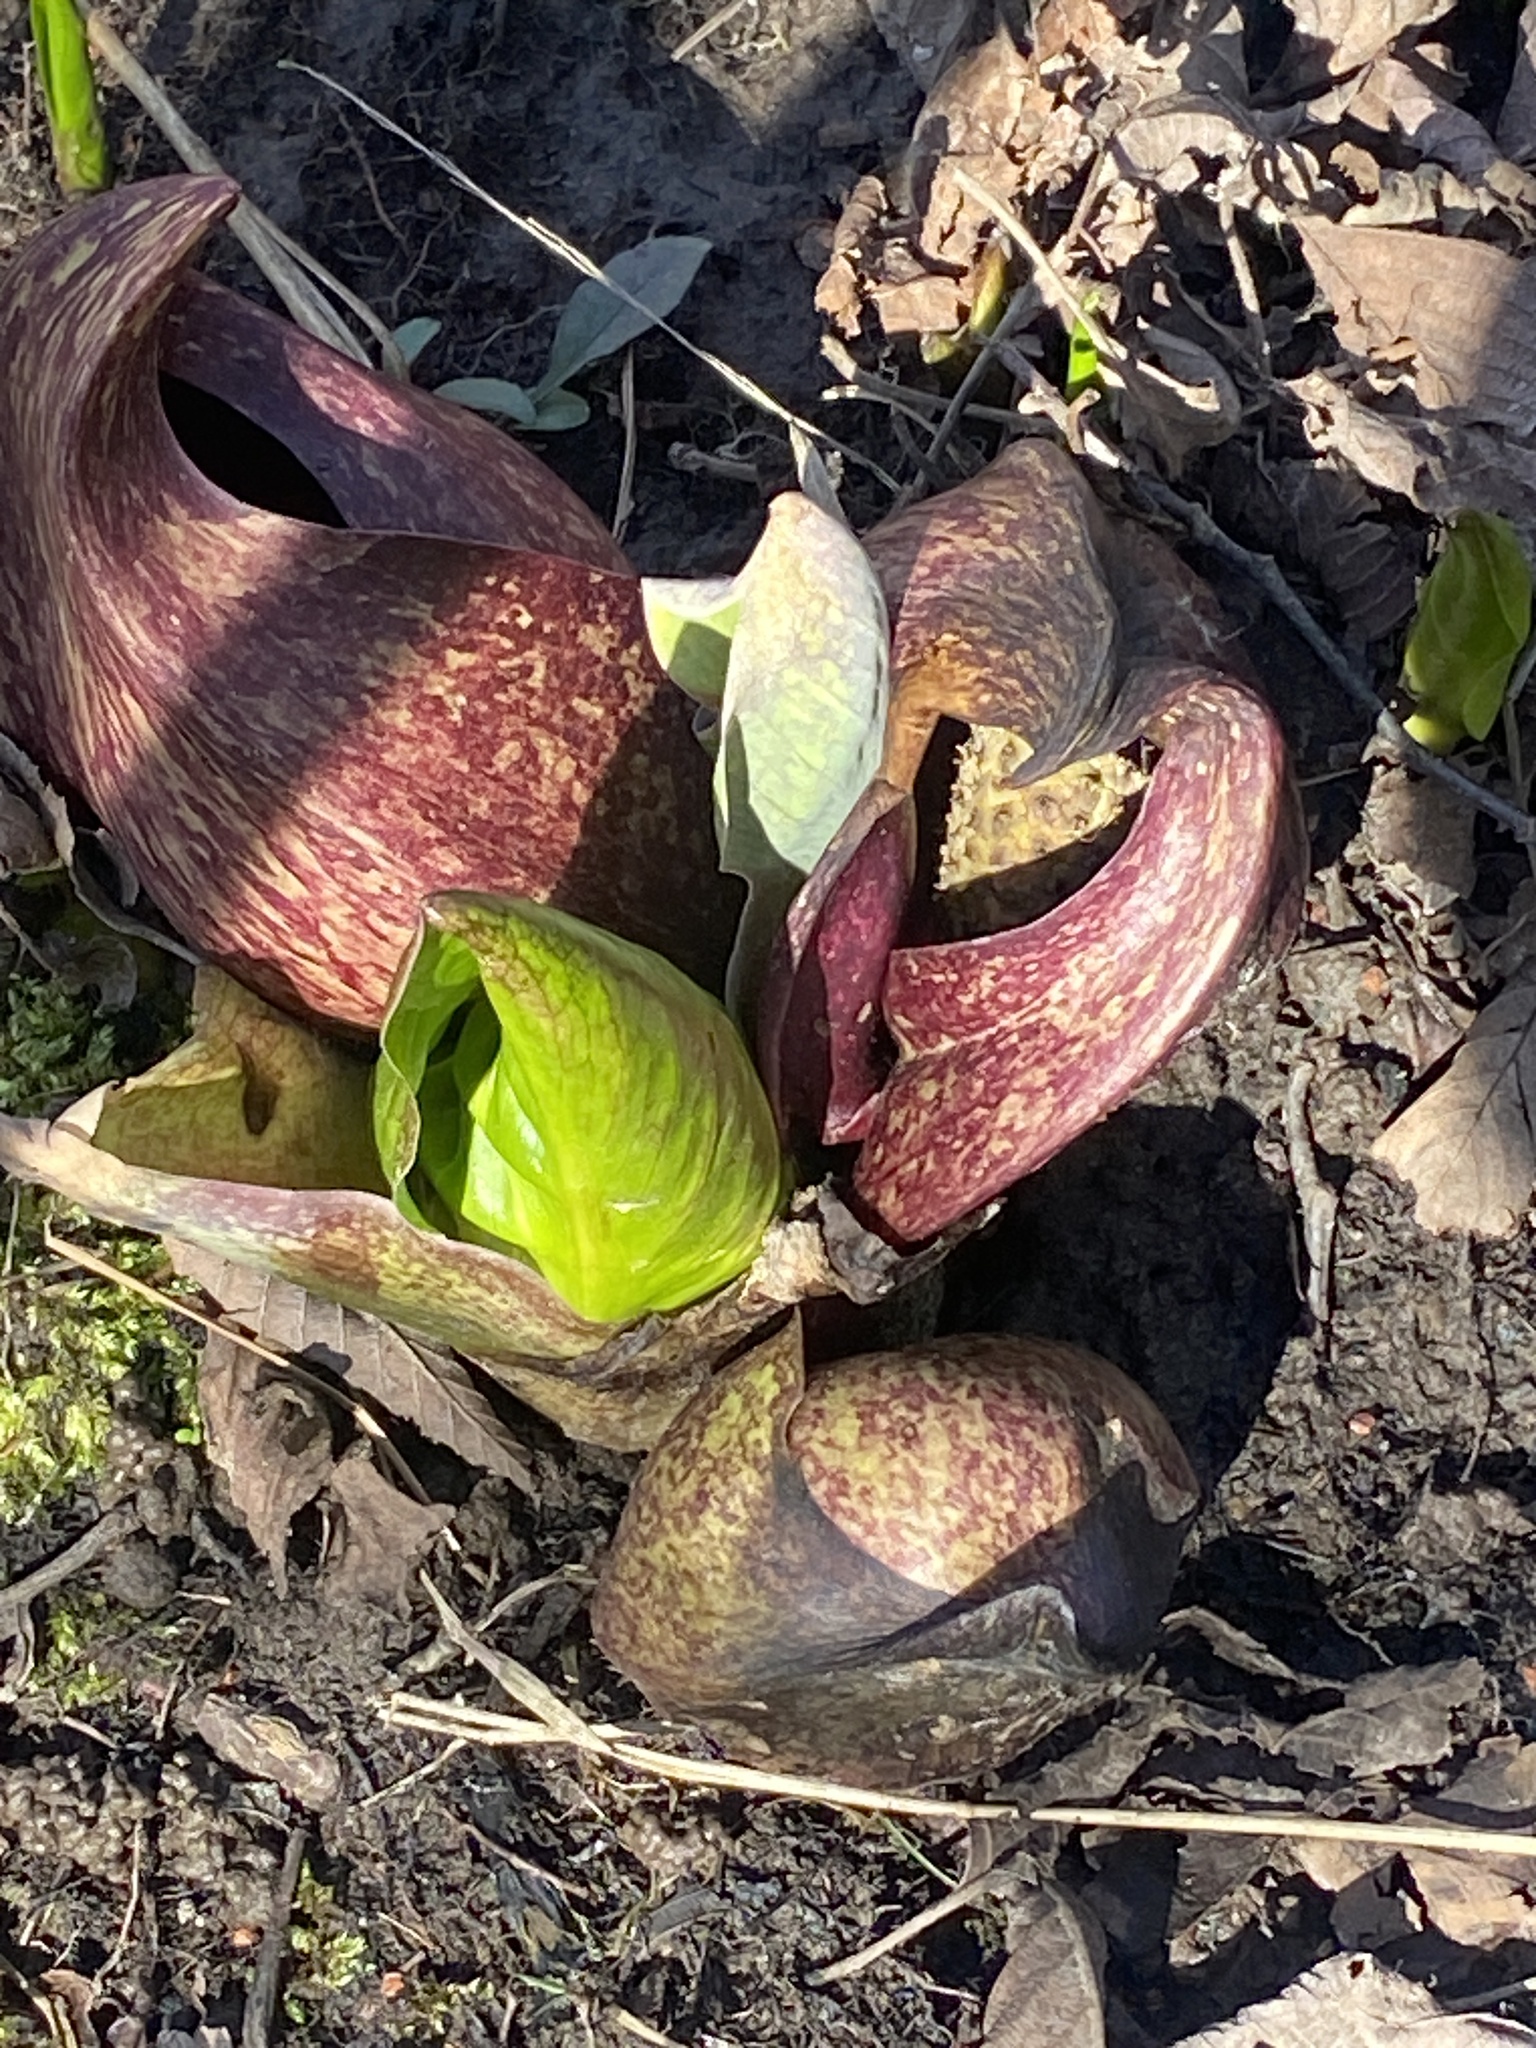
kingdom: Plantae
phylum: Tracheophyta
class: Liliopsida
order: Alismatales
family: Araceae
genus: Symplocarpus
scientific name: Symplocarpus foetidus
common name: Eastern skunk cabbage
